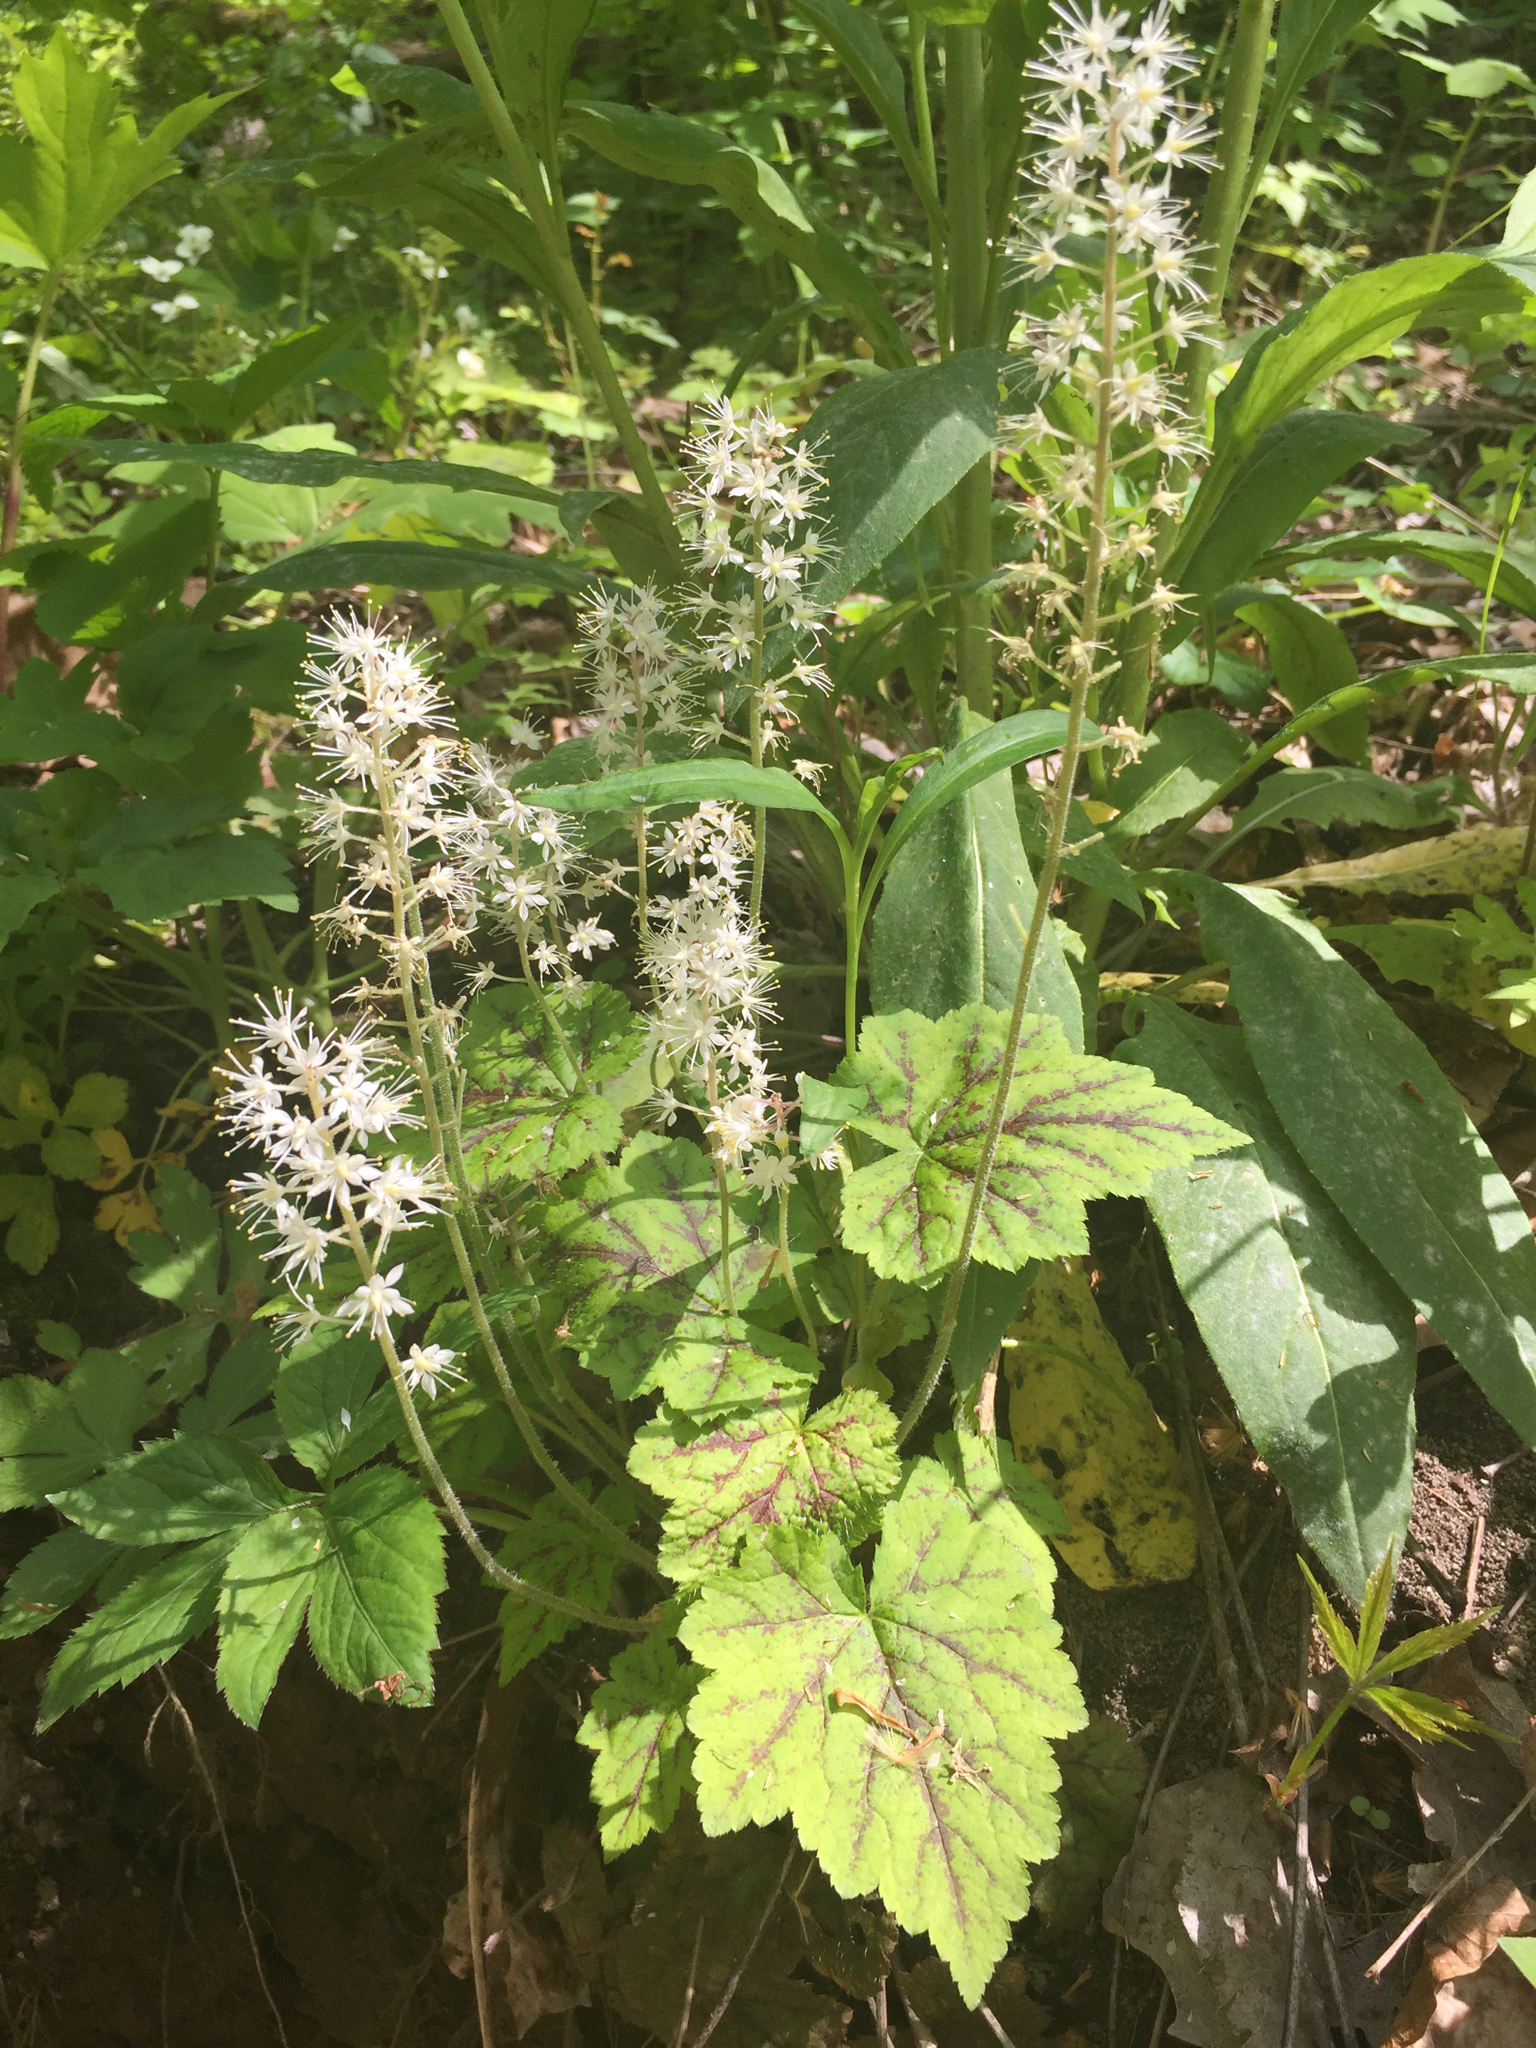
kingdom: Plantae
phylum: Tracheophyta
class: Magnoliopsida
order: Saxifragales
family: Saxifragaceae
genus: Tiarella
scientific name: Tiarella stolonifera
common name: Stoloniferous foamflower
